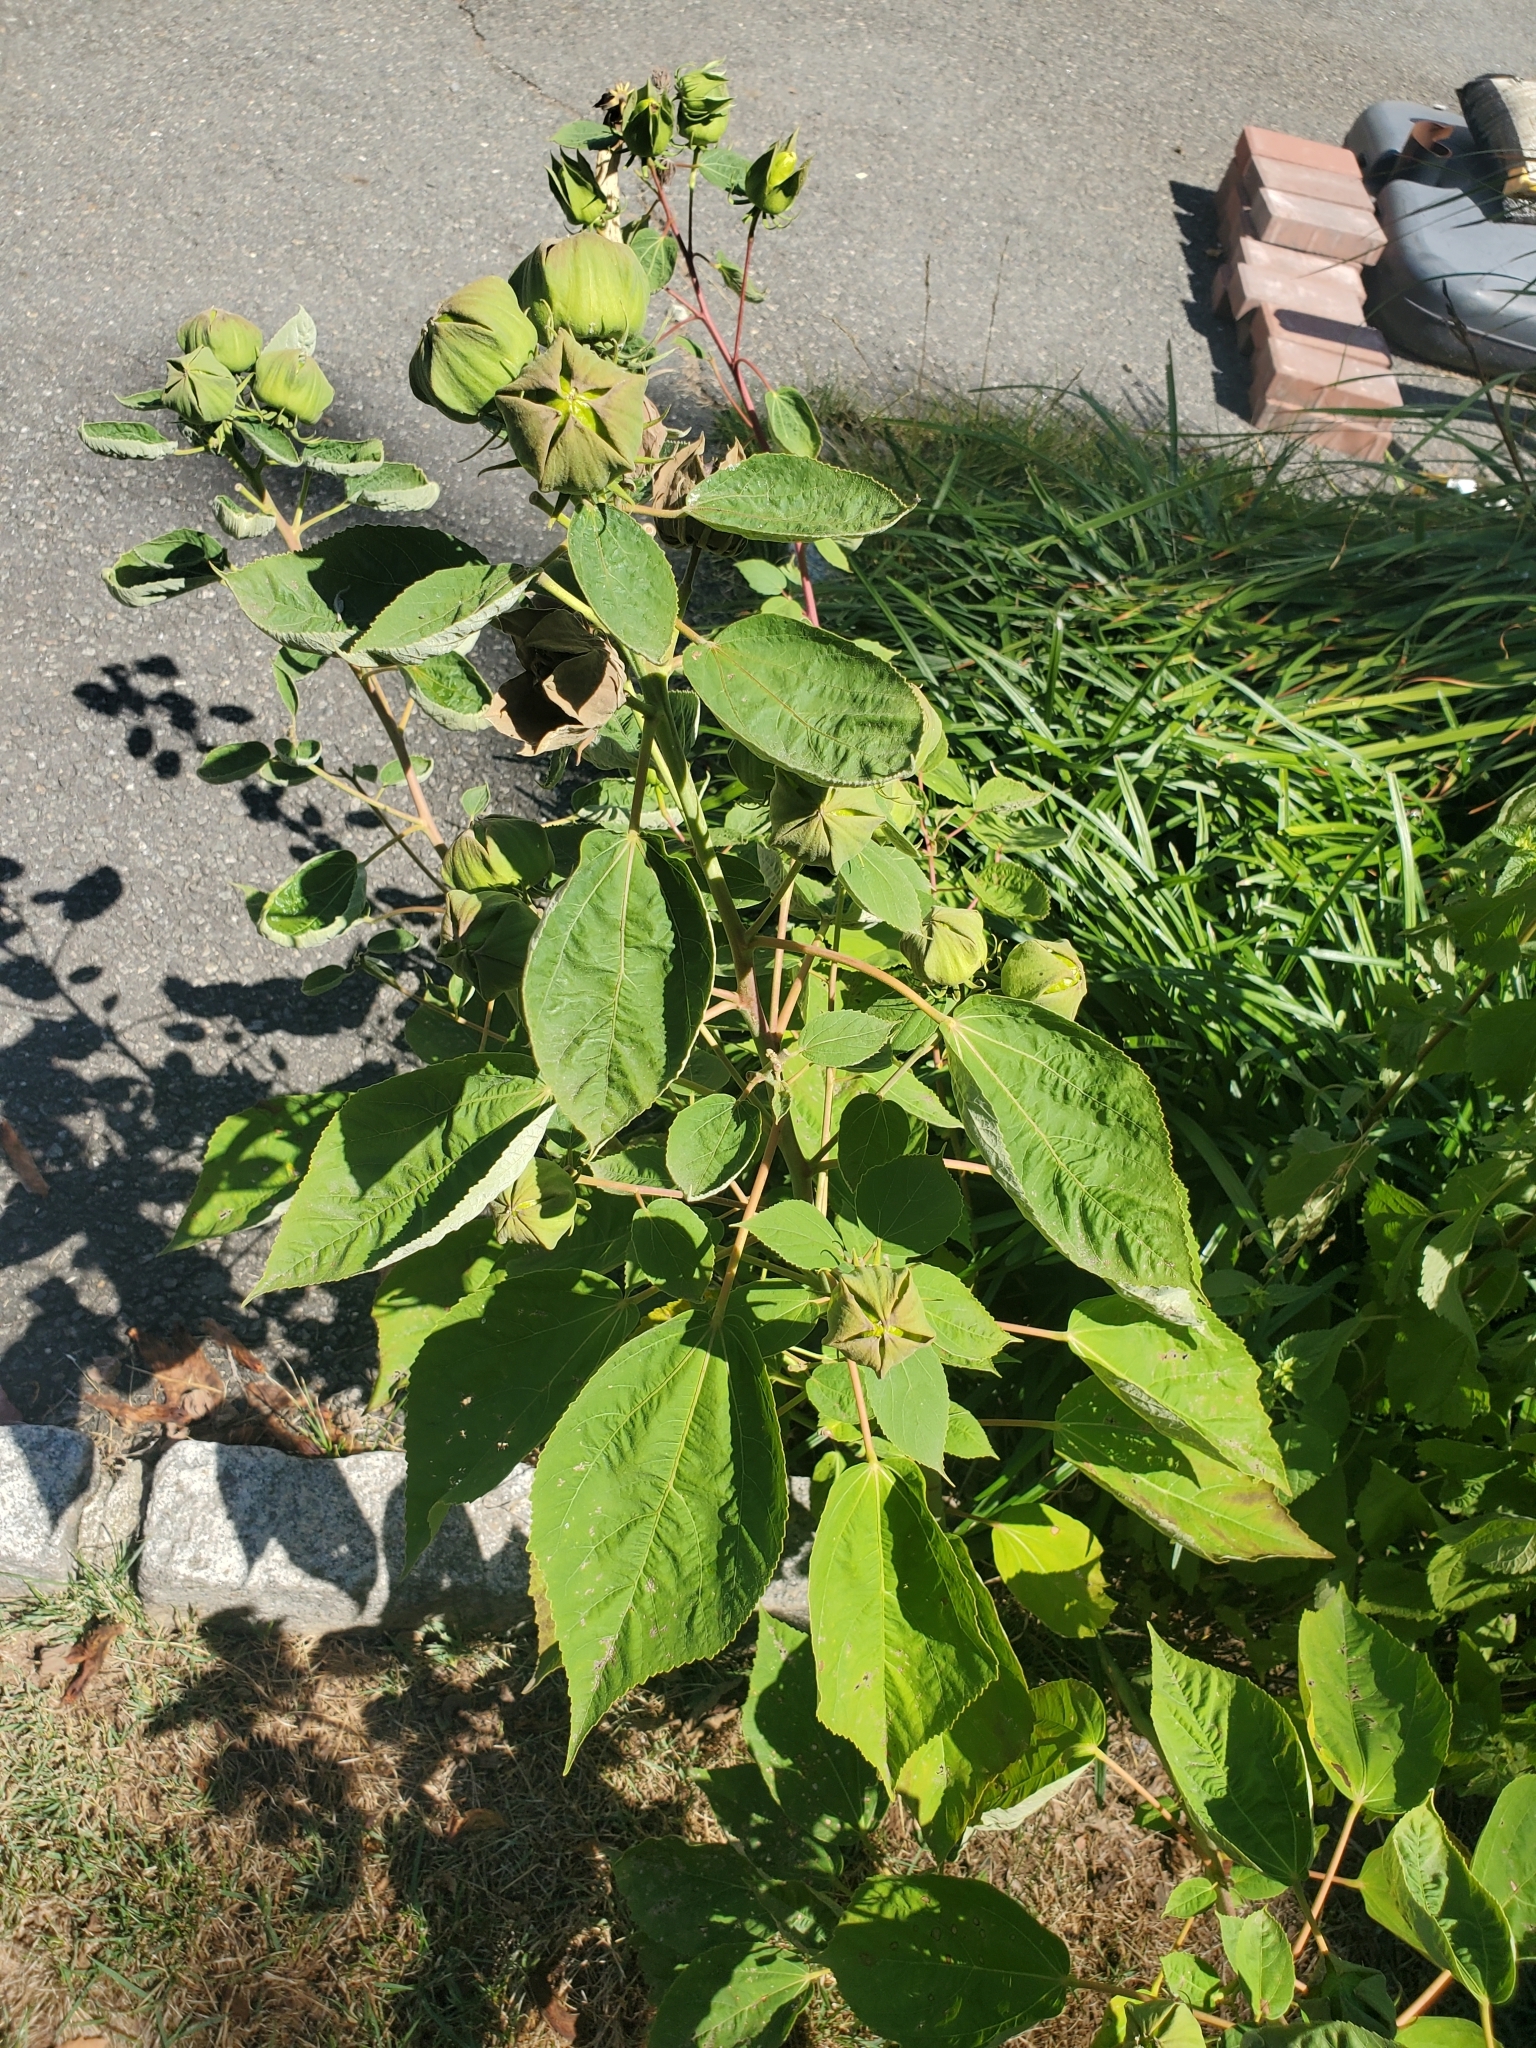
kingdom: Plantae
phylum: Tracheophyta
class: Magnoliopsida
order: Malvales
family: Malvaceae
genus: Hibiscus
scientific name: Hibiscus moscheutos
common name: Common rose-mallow
